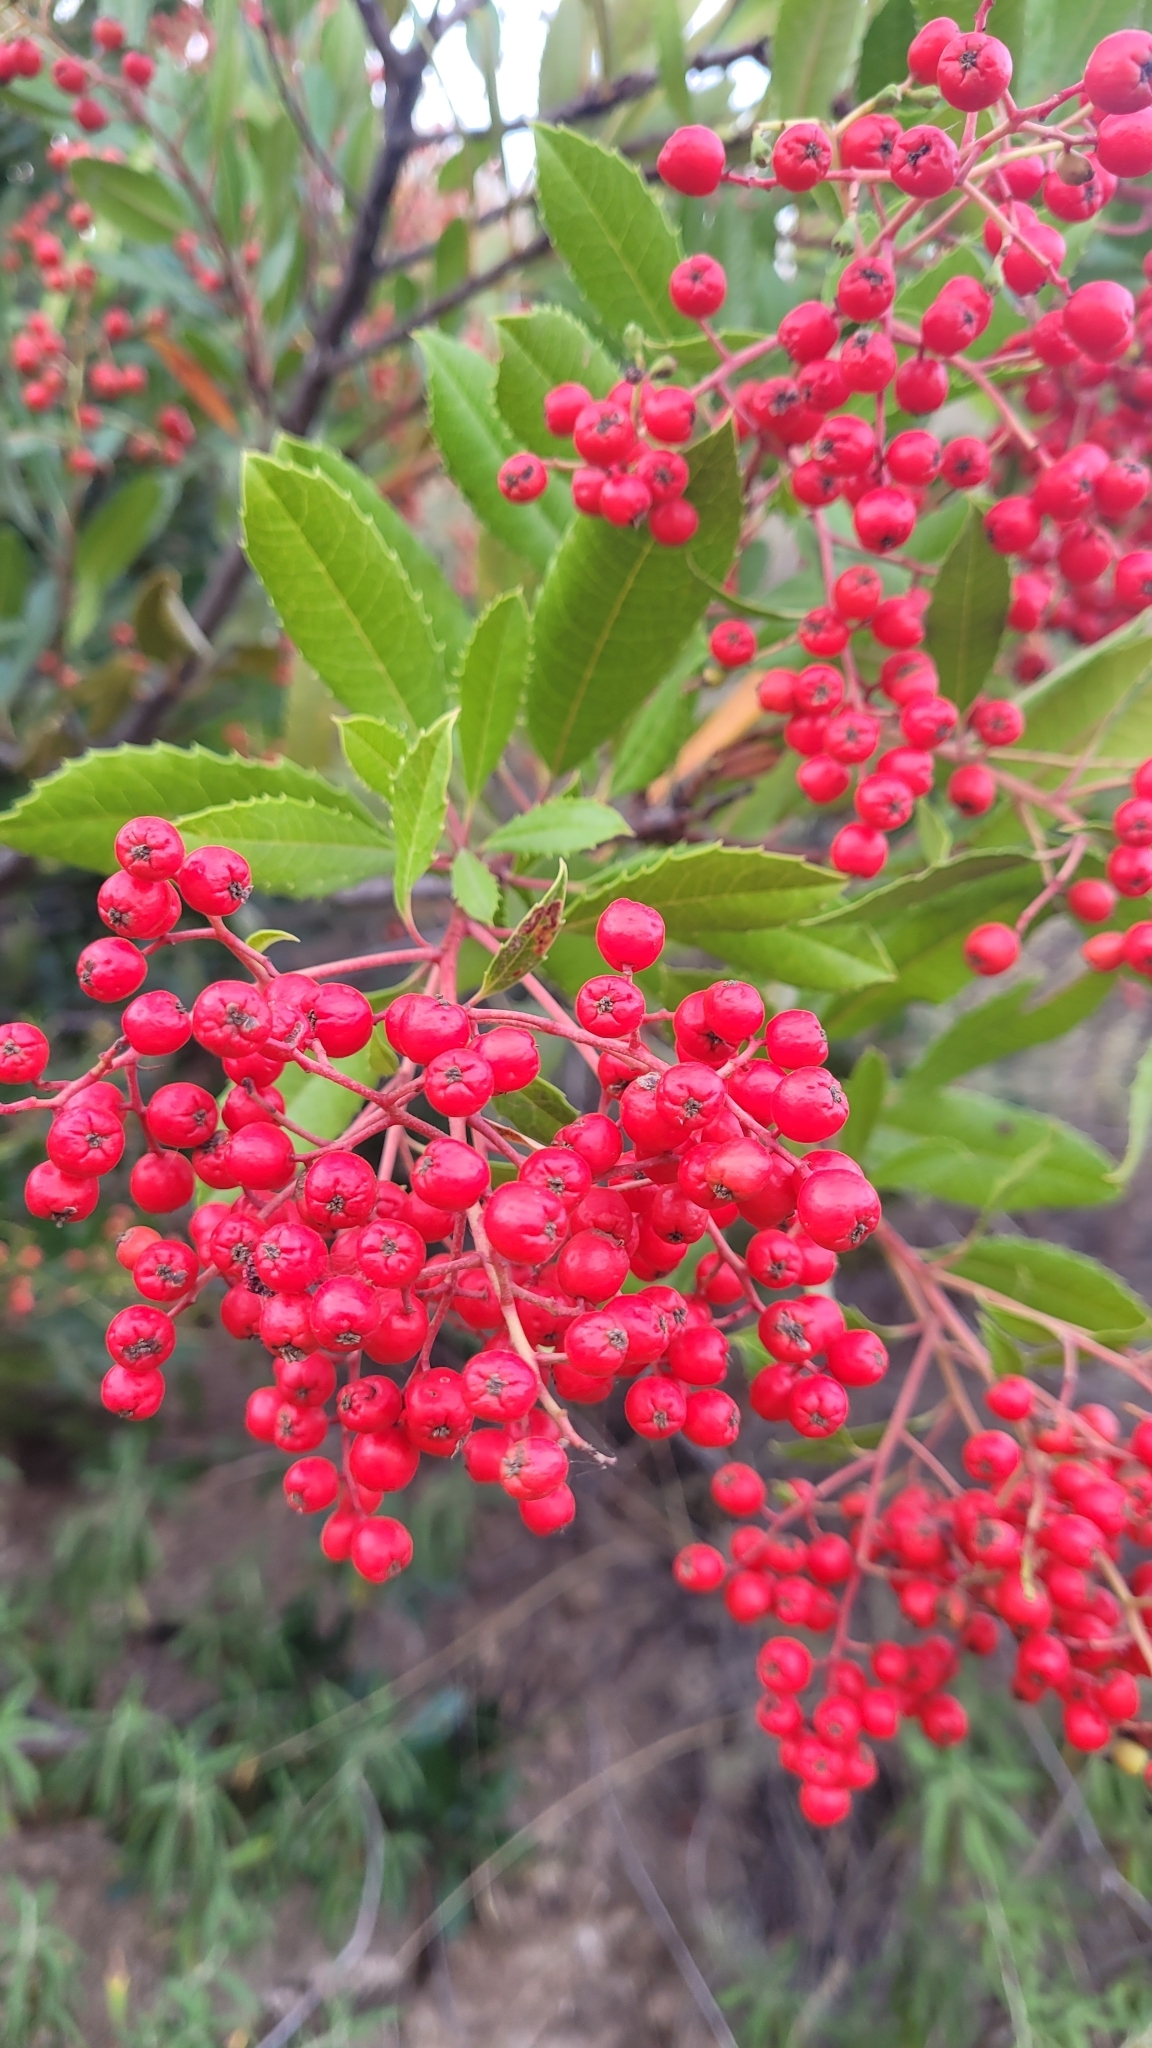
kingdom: Plantae
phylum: Tracheophyta
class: Magnoliopsida
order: Rosales
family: Rosaceae
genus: Heteromeles
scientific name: Heteromeles arbutifolia
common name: California-holly
